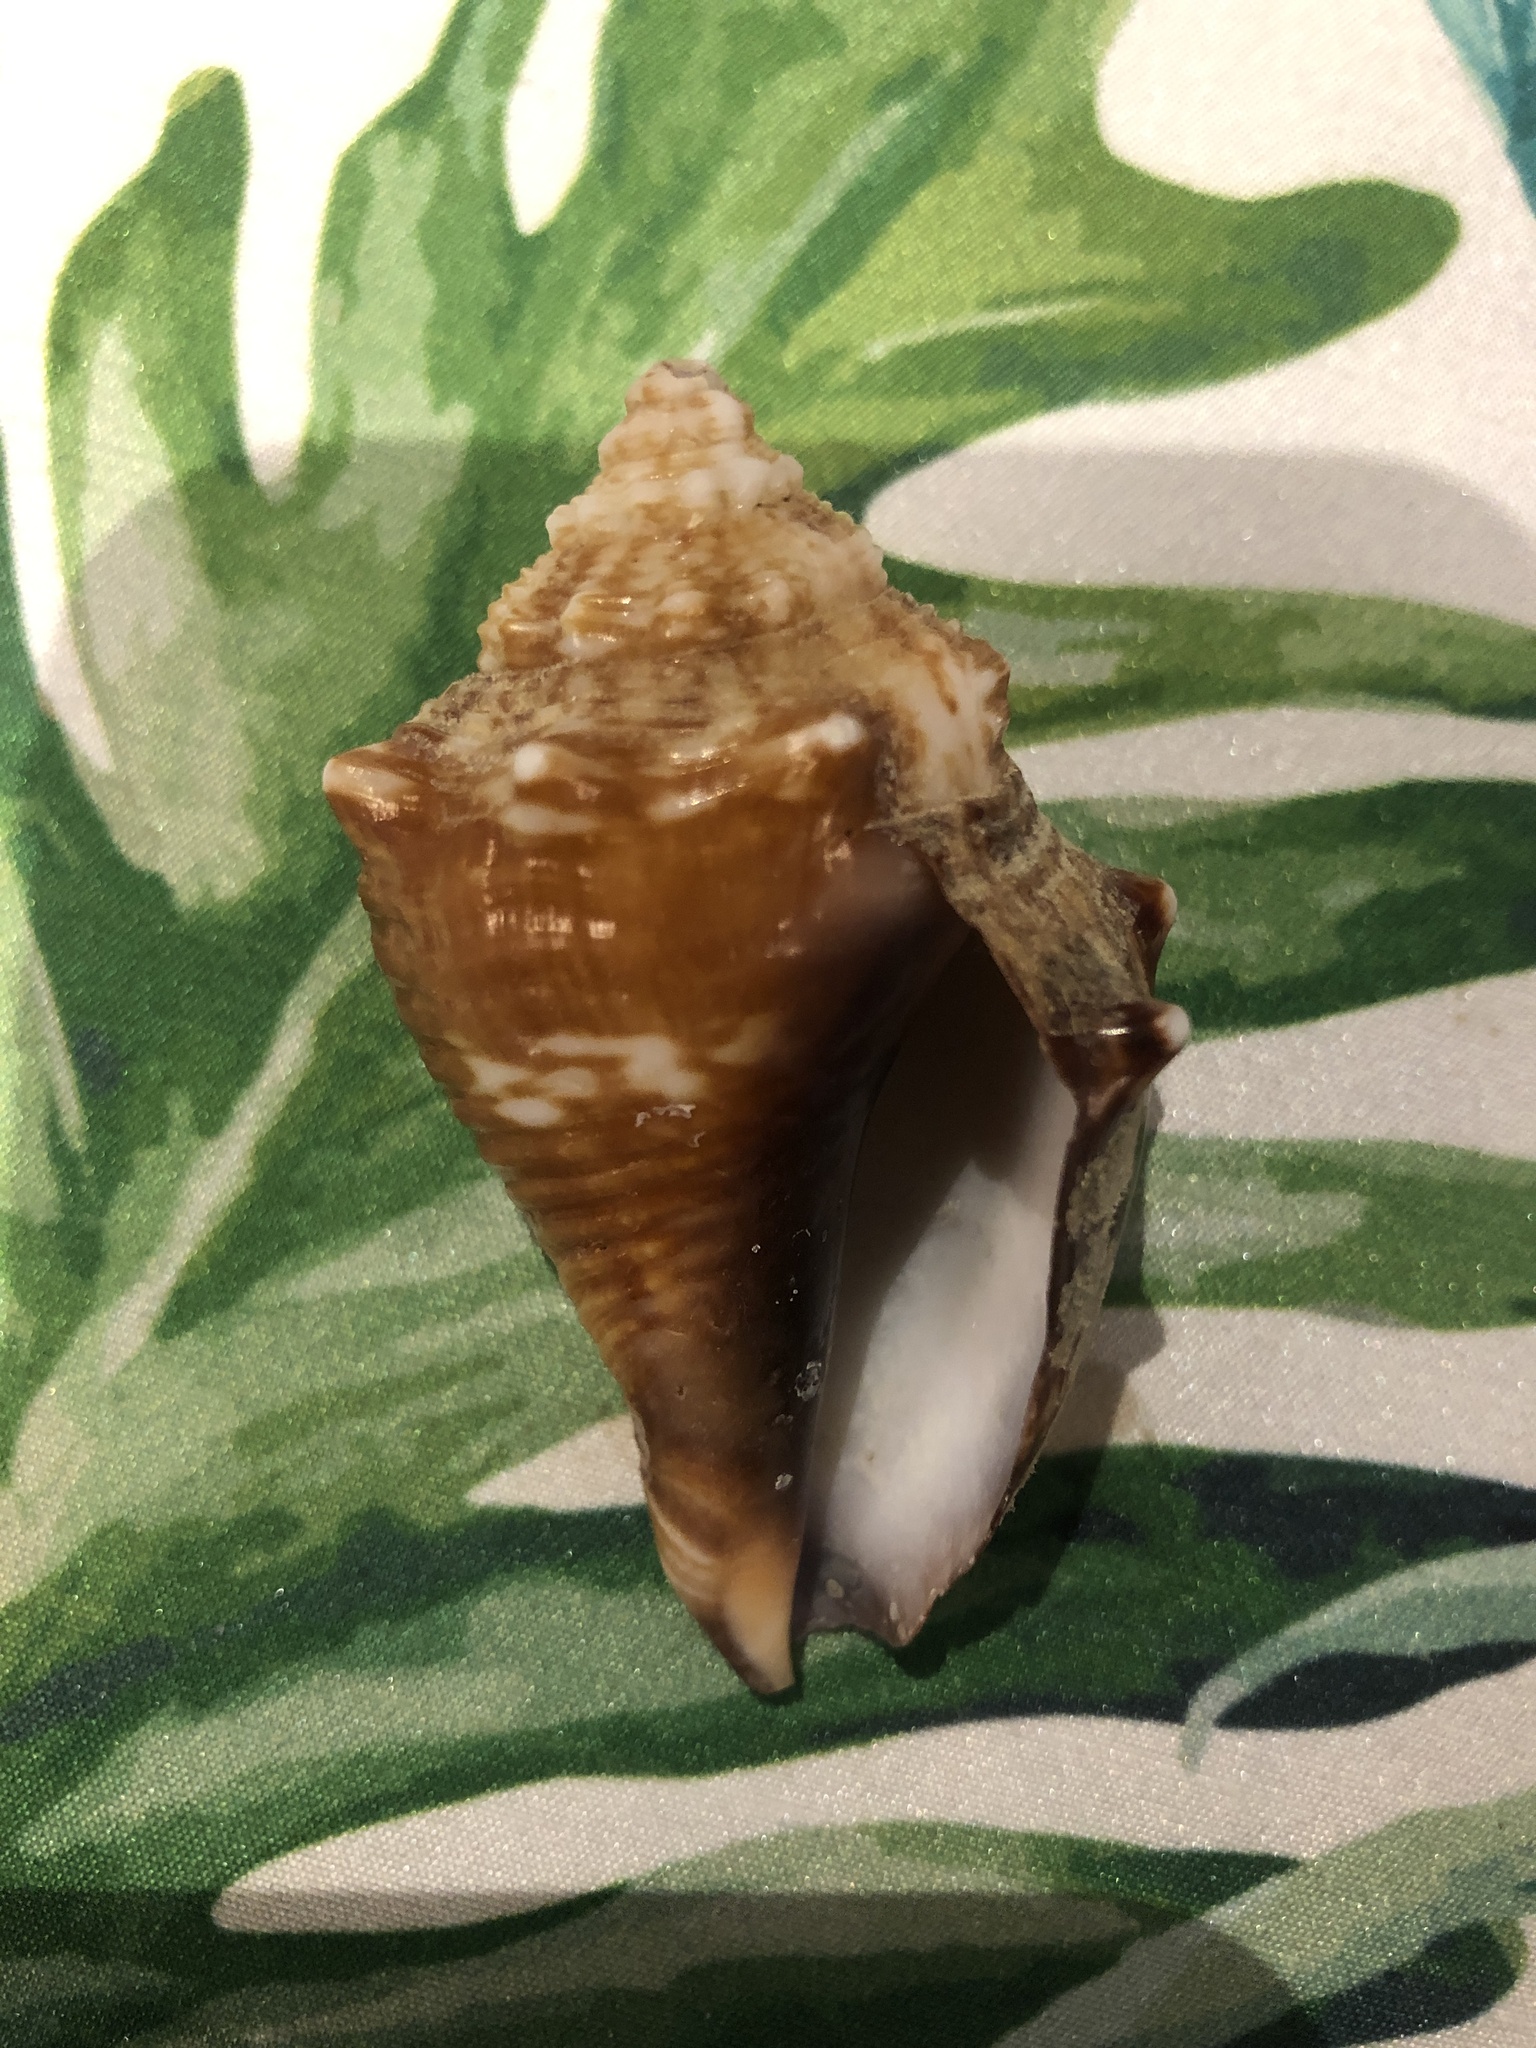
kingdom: Animalia
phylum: Mollusca
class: Gastropoda
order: Littorinimorpha
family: Strombidae
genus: Strombus
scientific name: Strombus alatus
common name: Florida fighting conch
